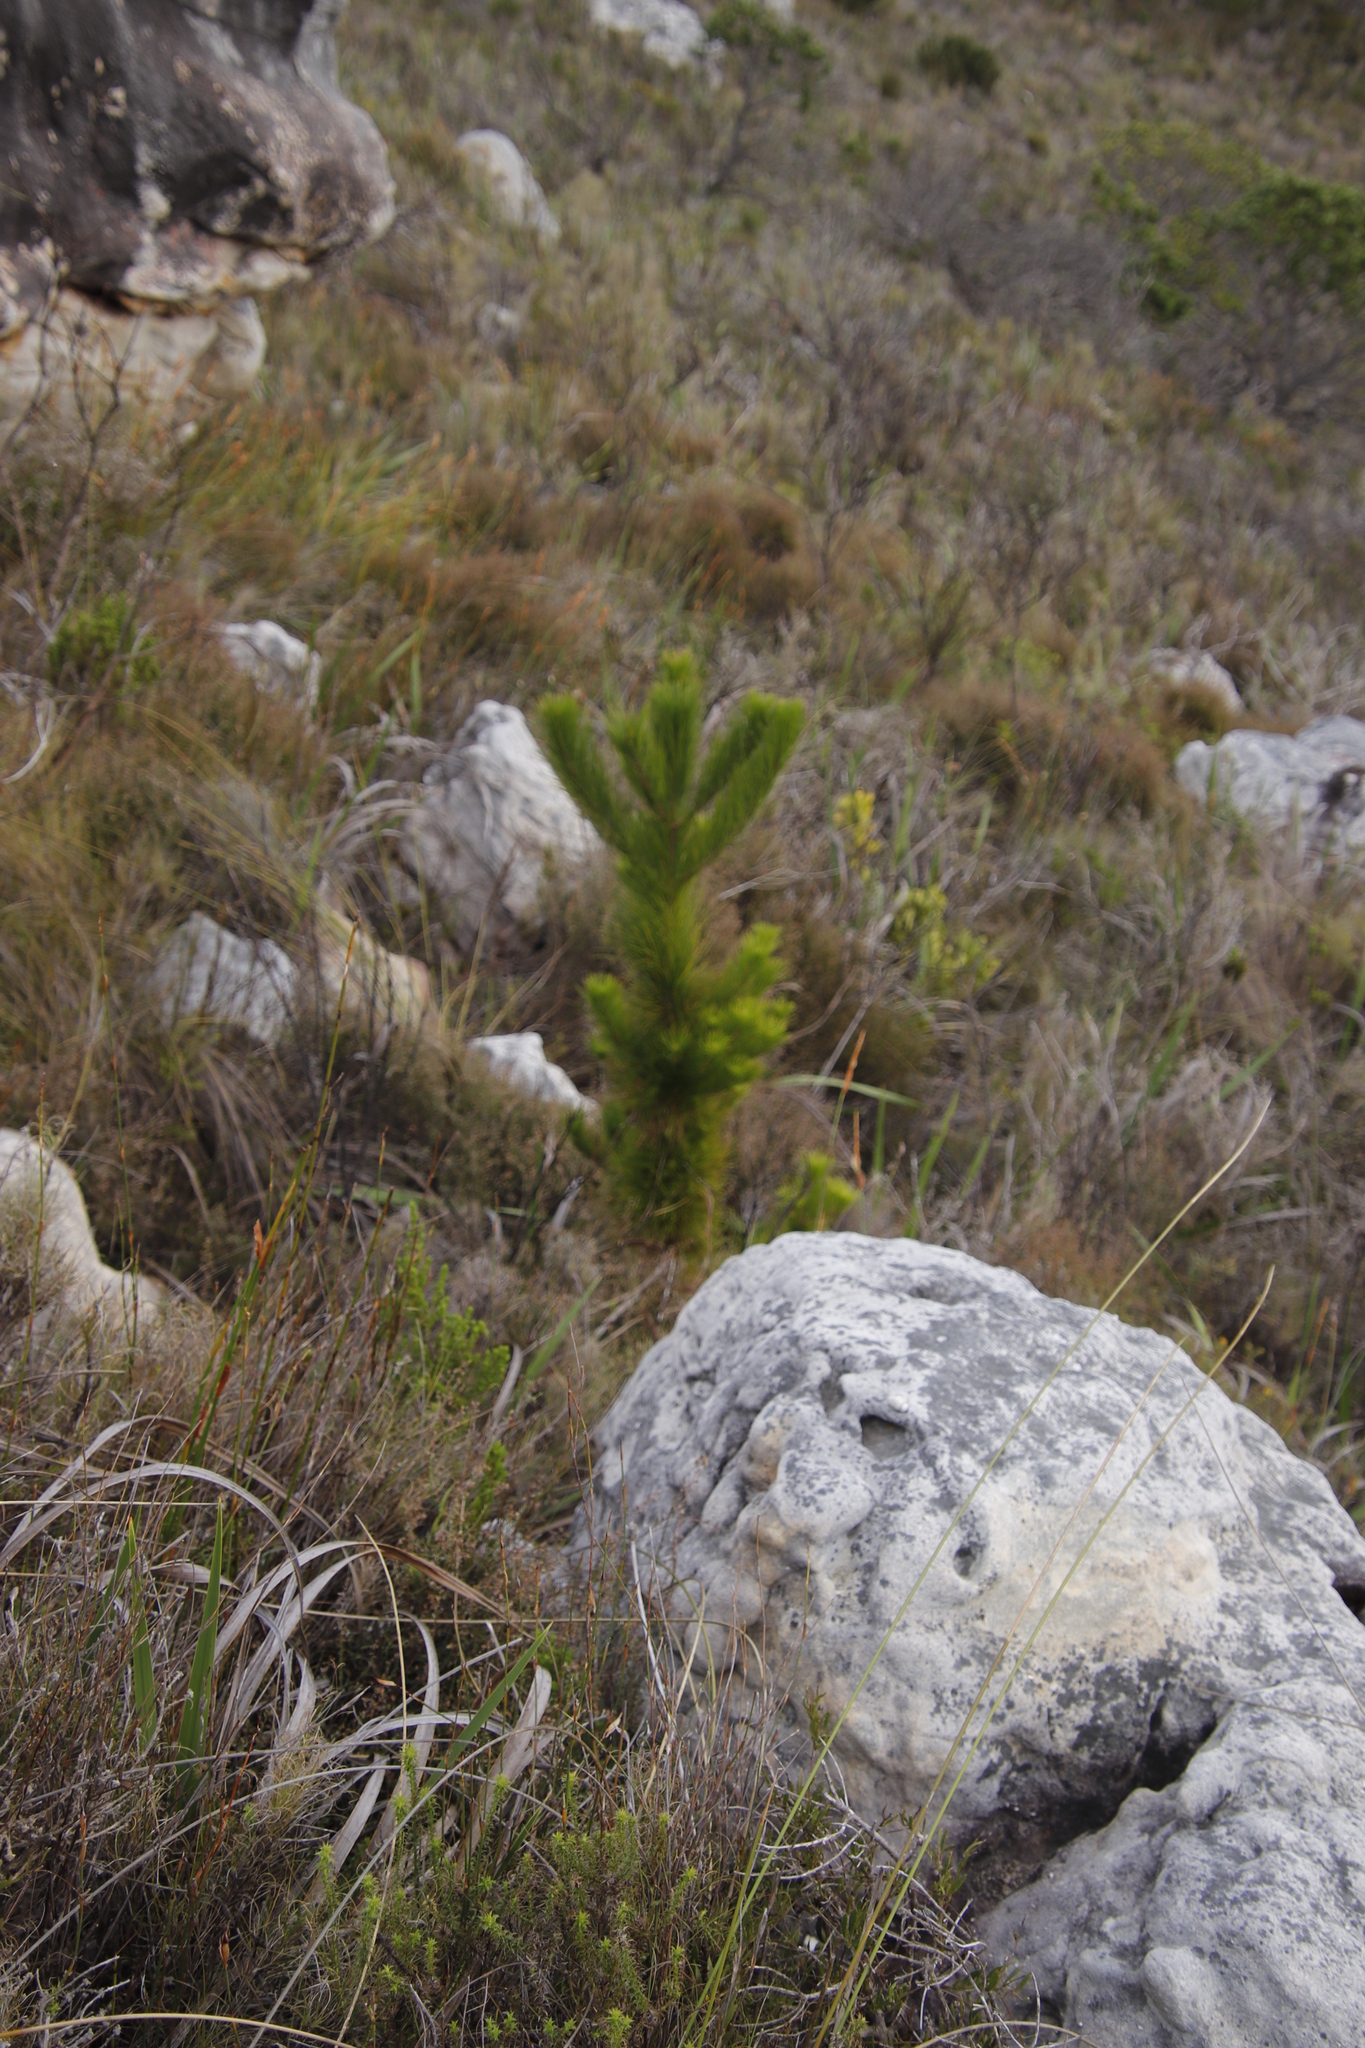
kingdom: Plantae
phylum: Tracheophyta
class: Pinopsida
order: Pinales
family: Pinaceae
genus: Pinus
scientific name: Pinus radiata
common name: Monterey pine
